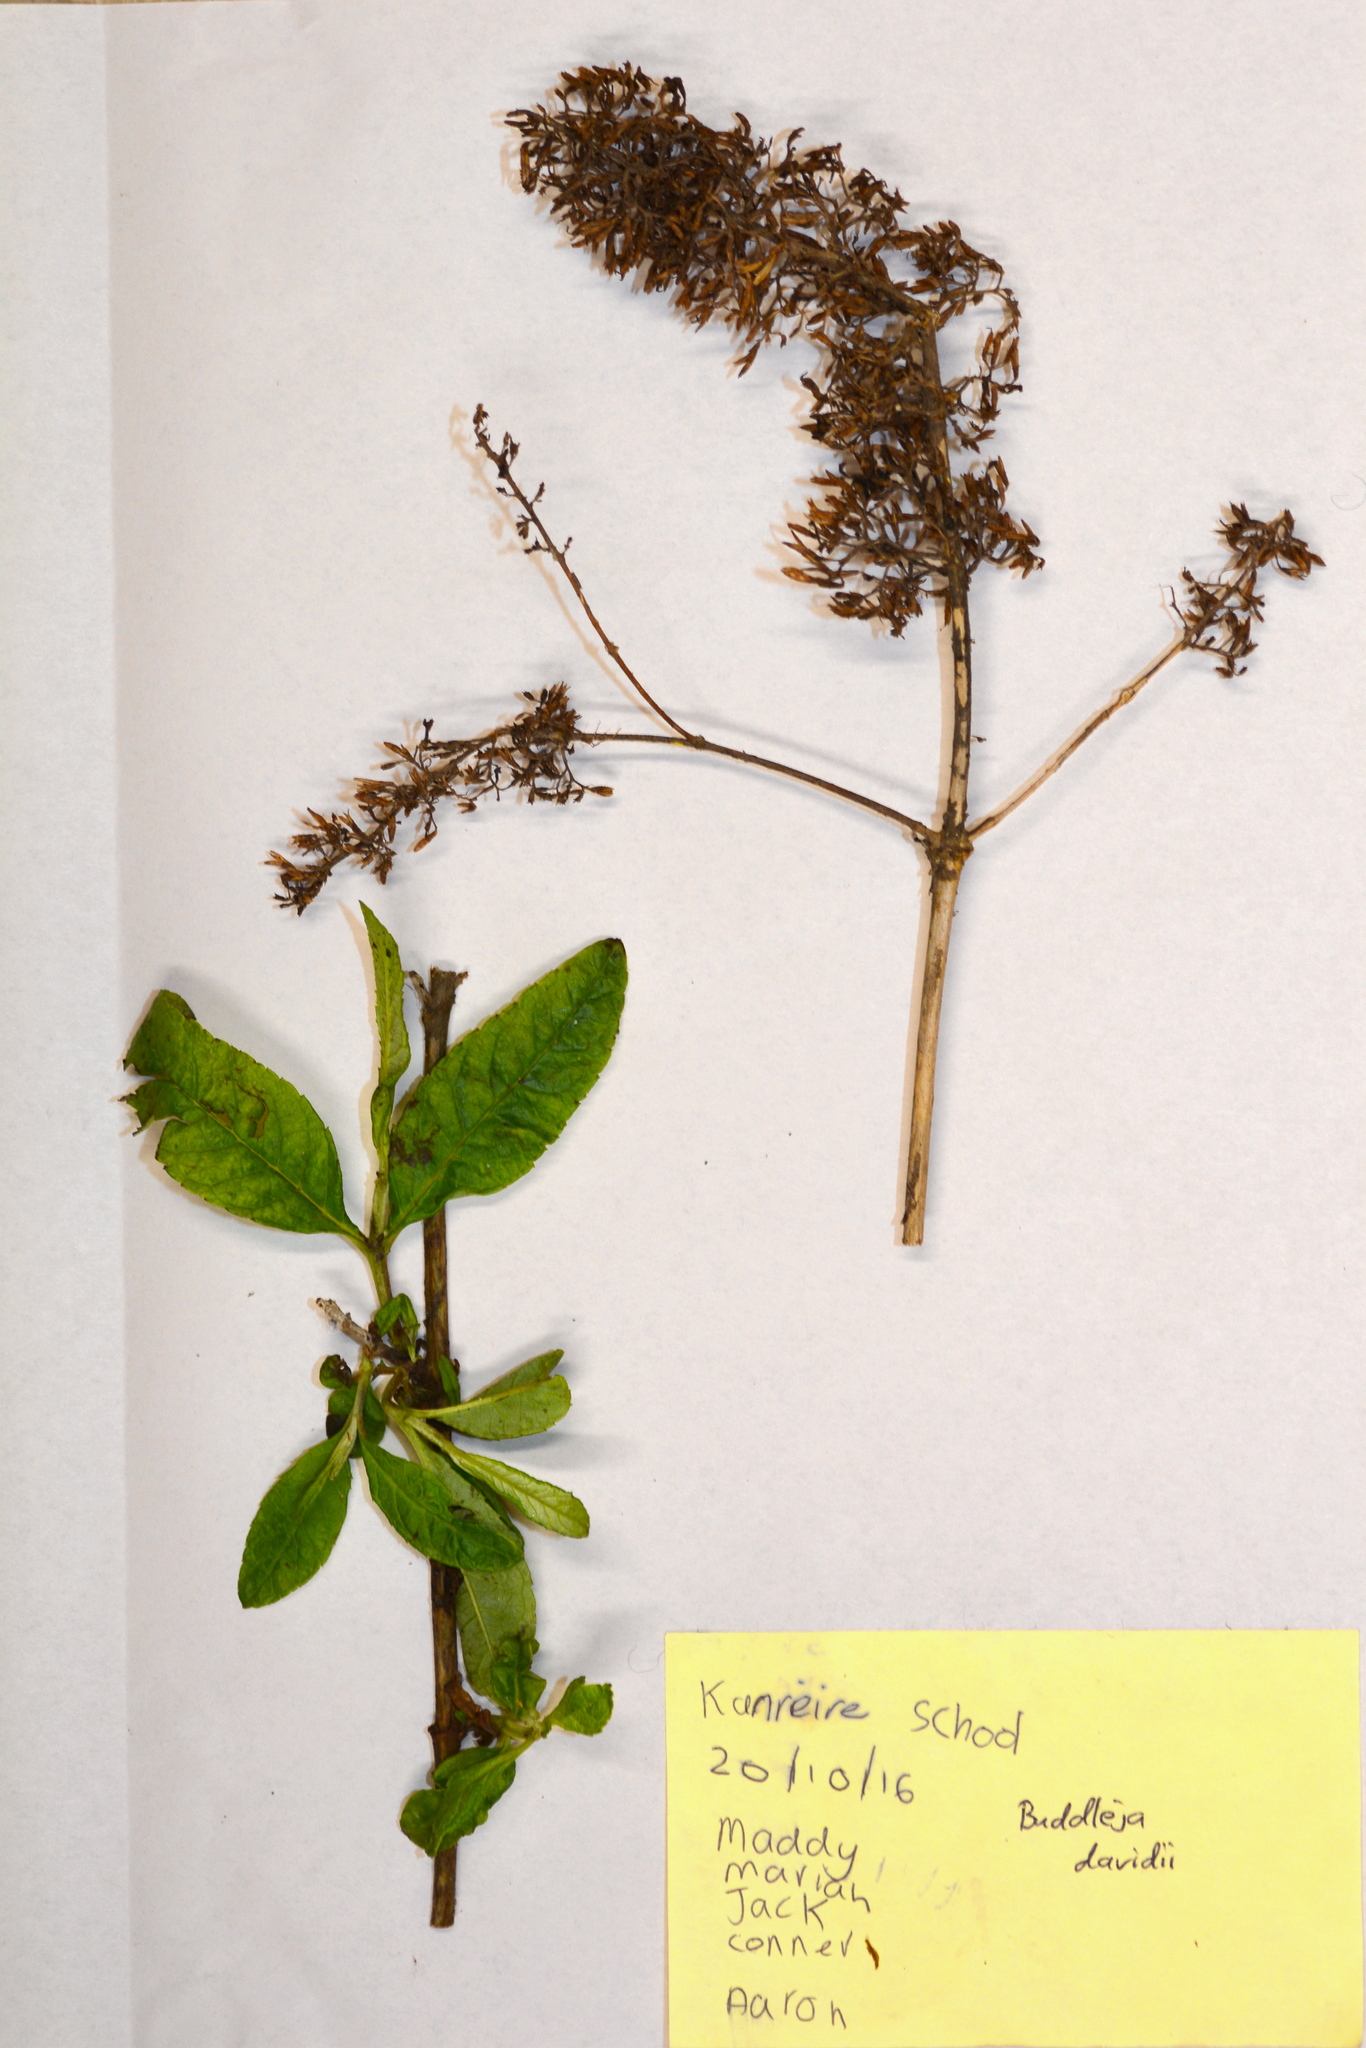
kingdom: Plantae
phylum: Tracheophyta
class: Magnoliopsida
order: Lamiales
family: Scrophulariaceae
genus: Buddleja
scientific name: Buddleja davidii
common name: Butterfly-bush
